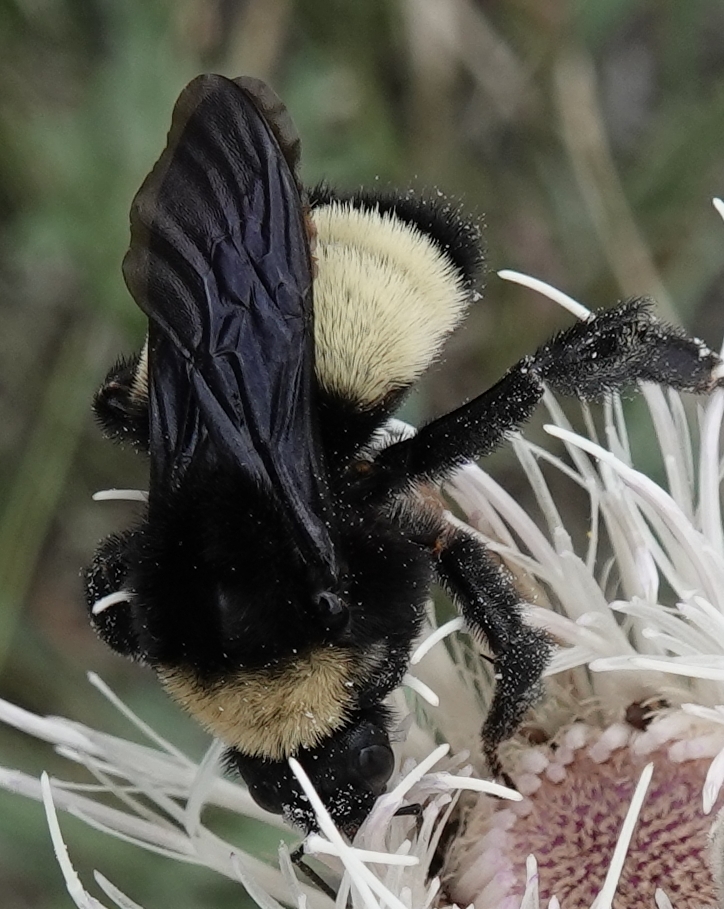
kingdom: Animalia
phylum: Arthropoda
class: Insecta
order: Hymenoptera
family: Apidae
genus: Bombus
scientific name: Bombus pensylvanicus
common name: Bumble bee
